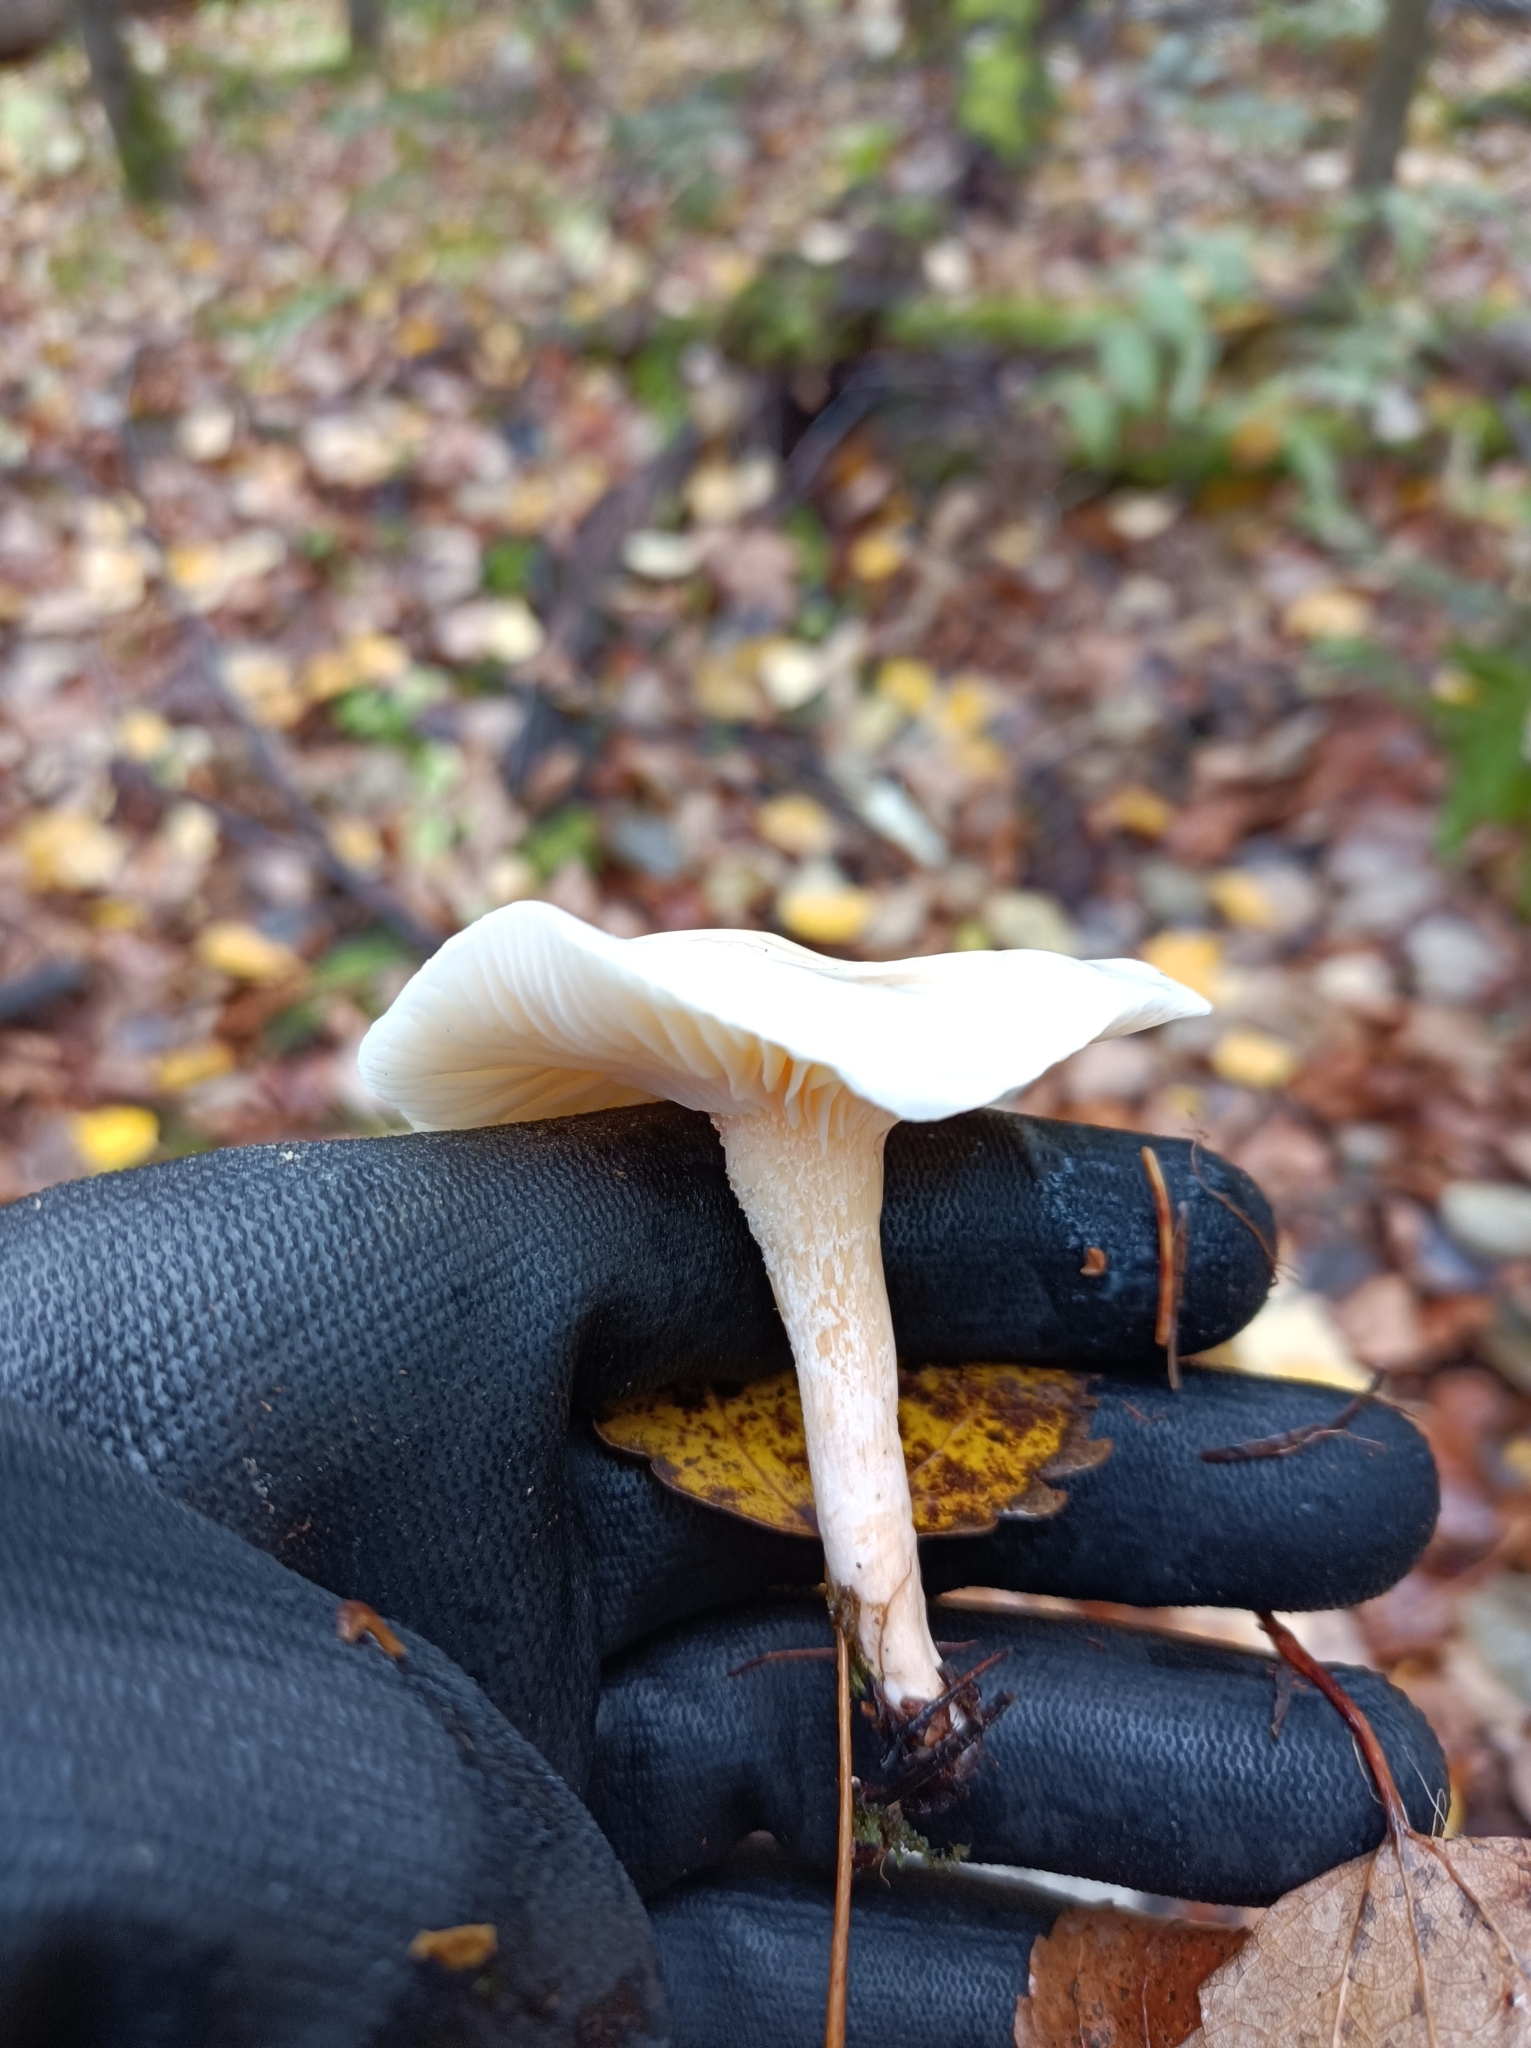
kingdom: Fungi
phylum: Basidiomycota
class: Agaricomycetes
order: Agaricales
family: Hygrophoraceae
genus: Hygrophorus
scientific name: Hygrophorus eburneus
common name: Ivory wax-cap
